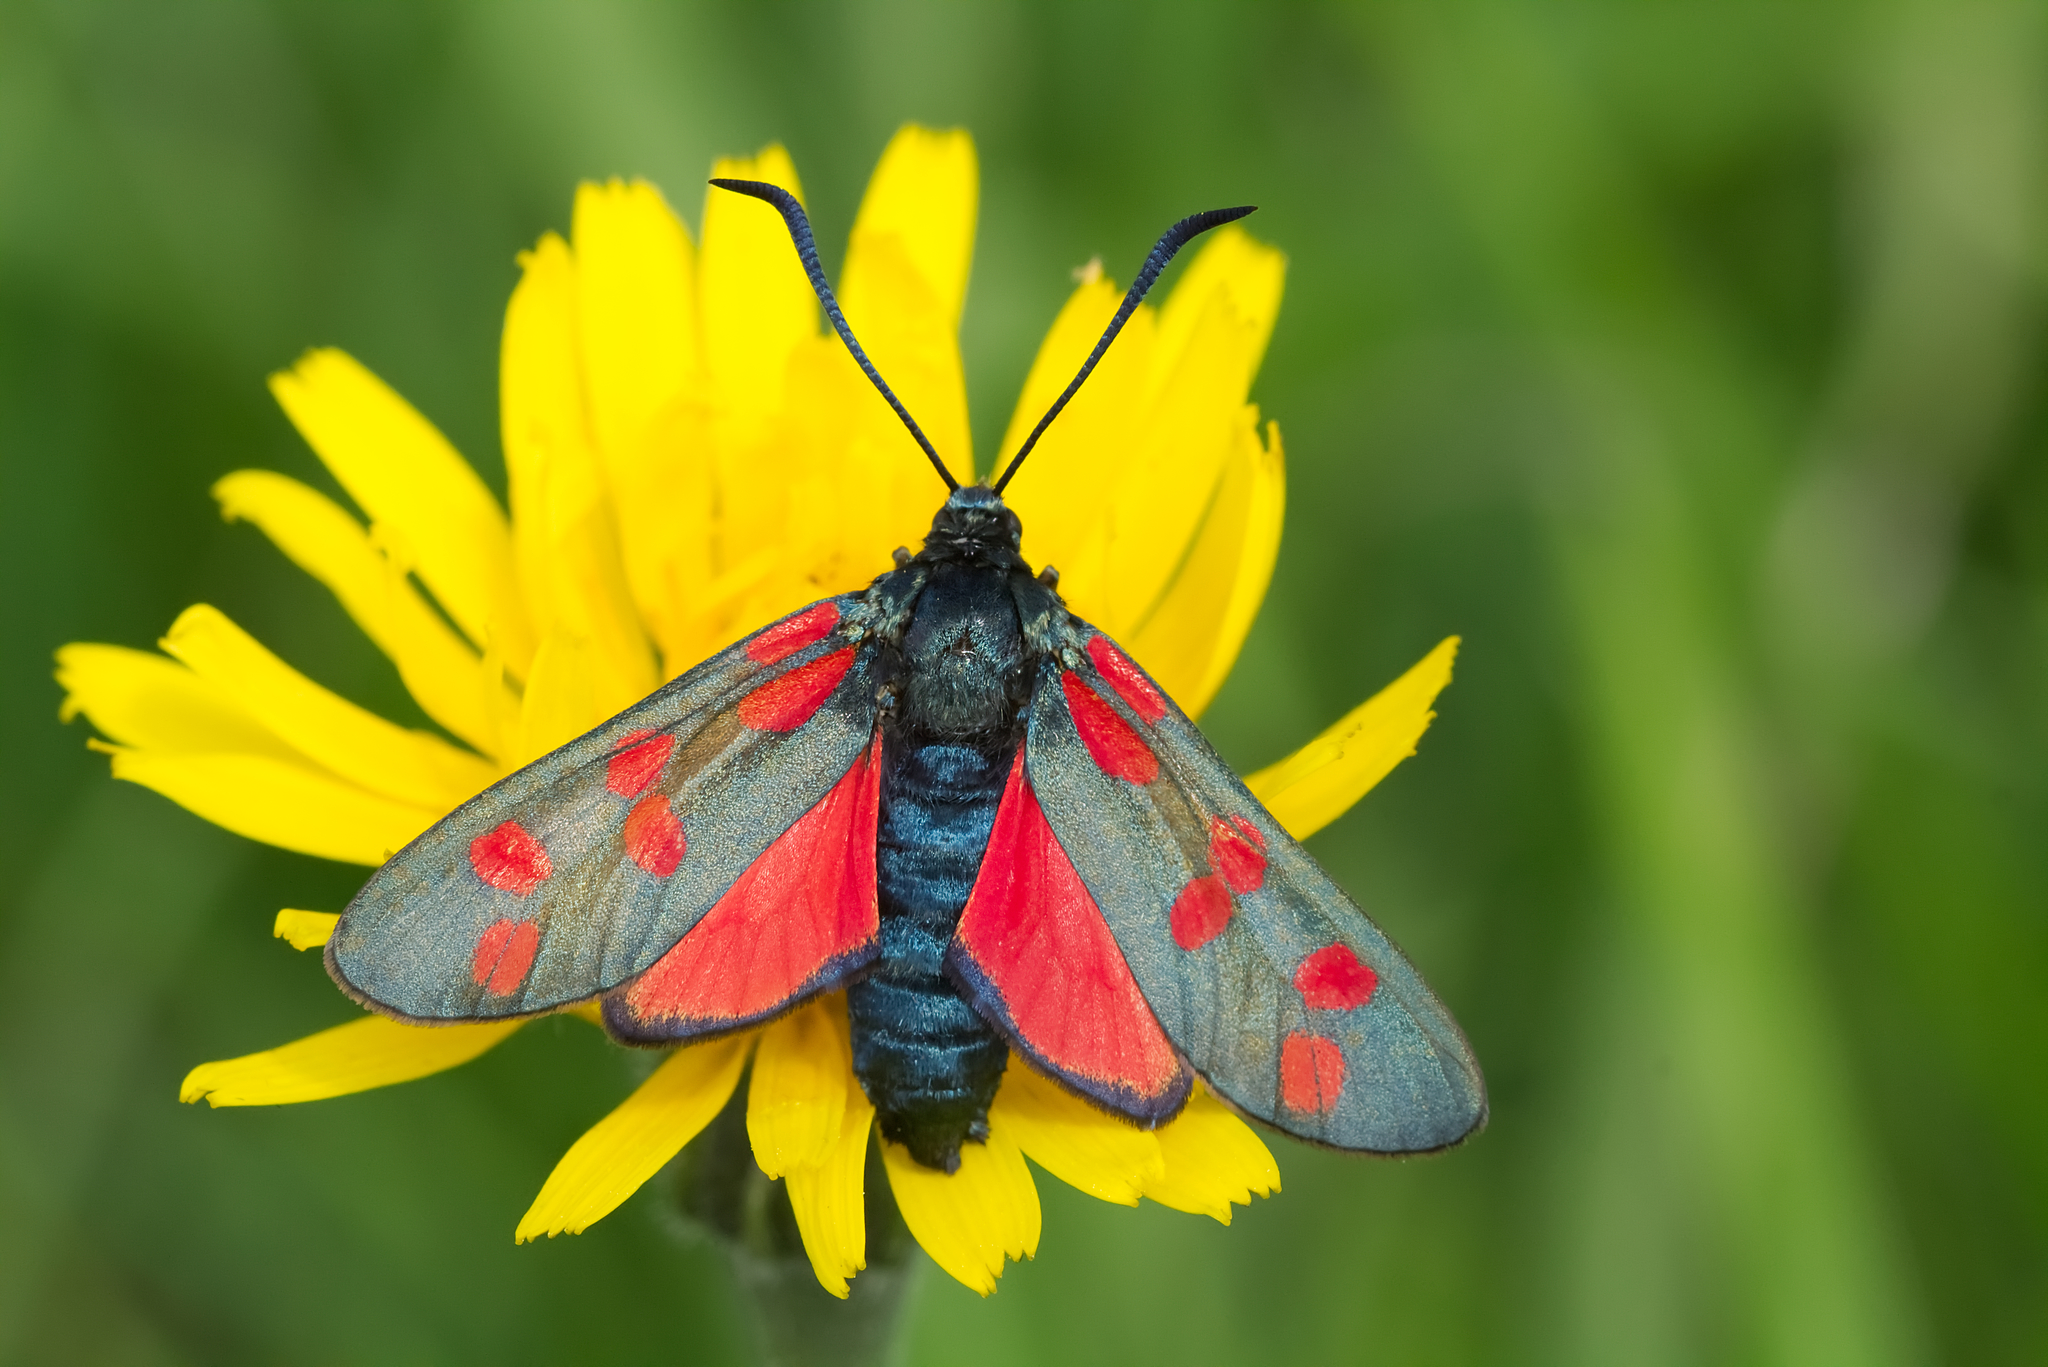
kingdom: Animalia
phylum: Arthropoda
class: Insecta
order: Lepidoptera
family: Zygaenidae
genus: Zygaena
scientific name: Zygaena filipendulae
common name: Six-spot burnet
